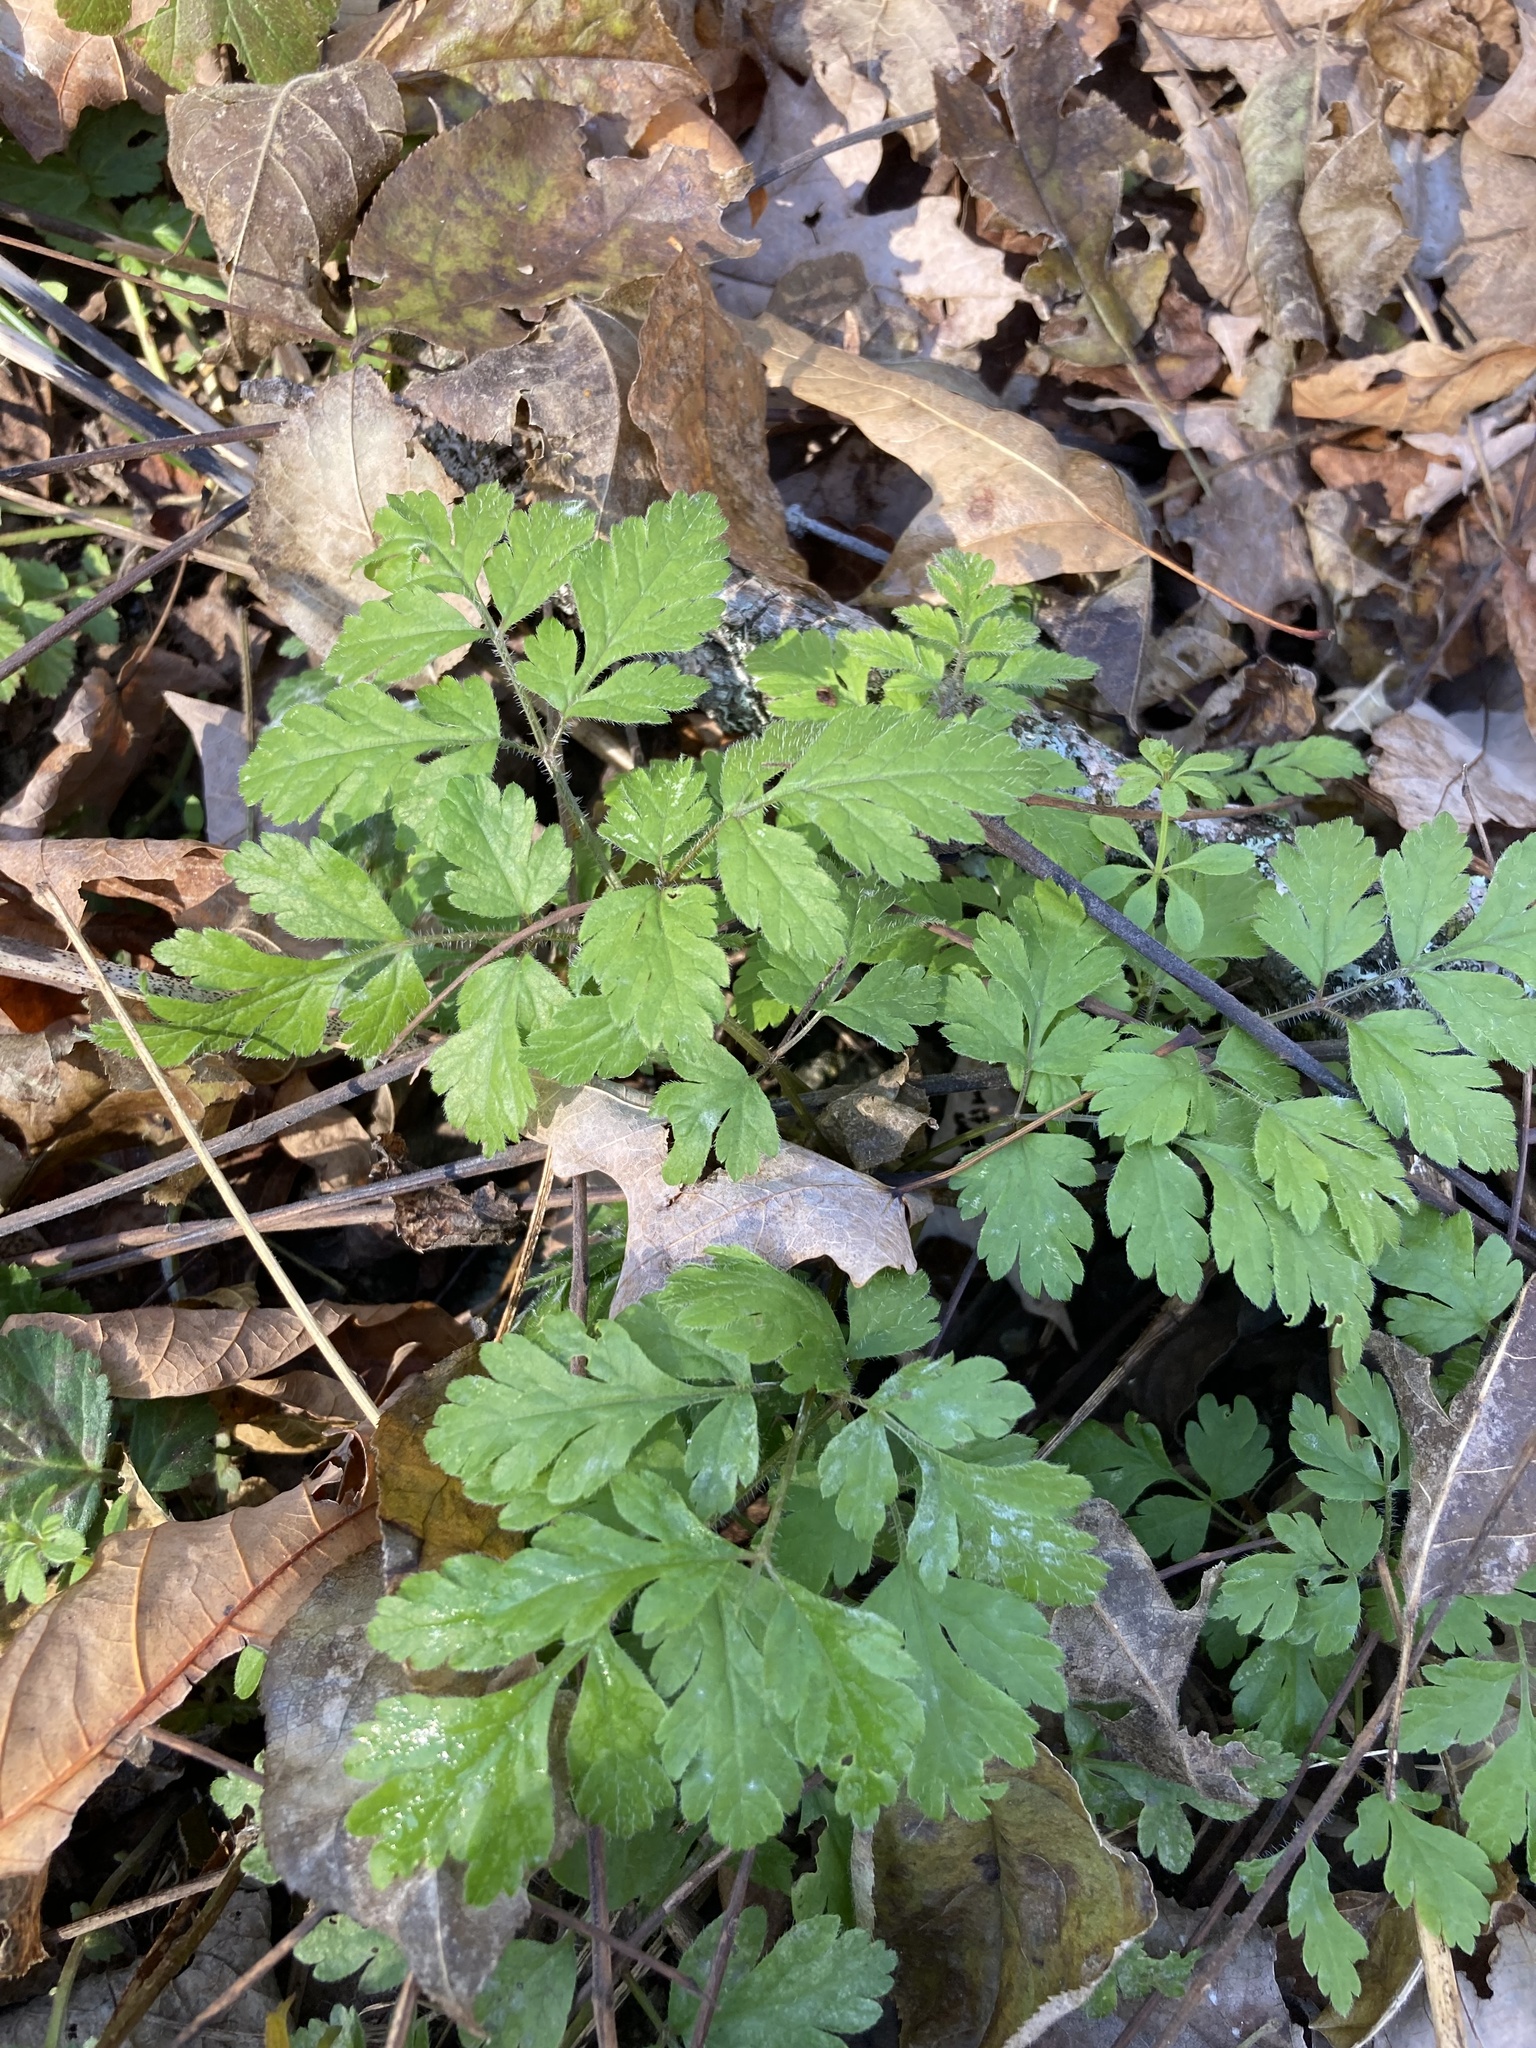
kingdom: Plantae
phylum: Tracheophyta
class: Magnoliopsida
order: Apiales
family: Apiaceae
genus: Osmorhiza
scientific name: Osmorhiza longistylis
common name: Smooth sweet cicely
